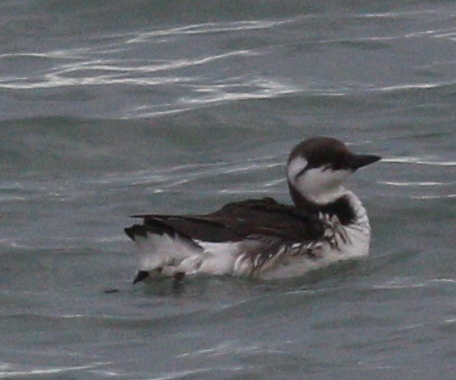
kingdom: Animalia
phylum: Chordata
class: Aves
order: Charadriiformes
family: Alcidae
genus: Uria
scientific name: Uria aalge
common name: Common murre
